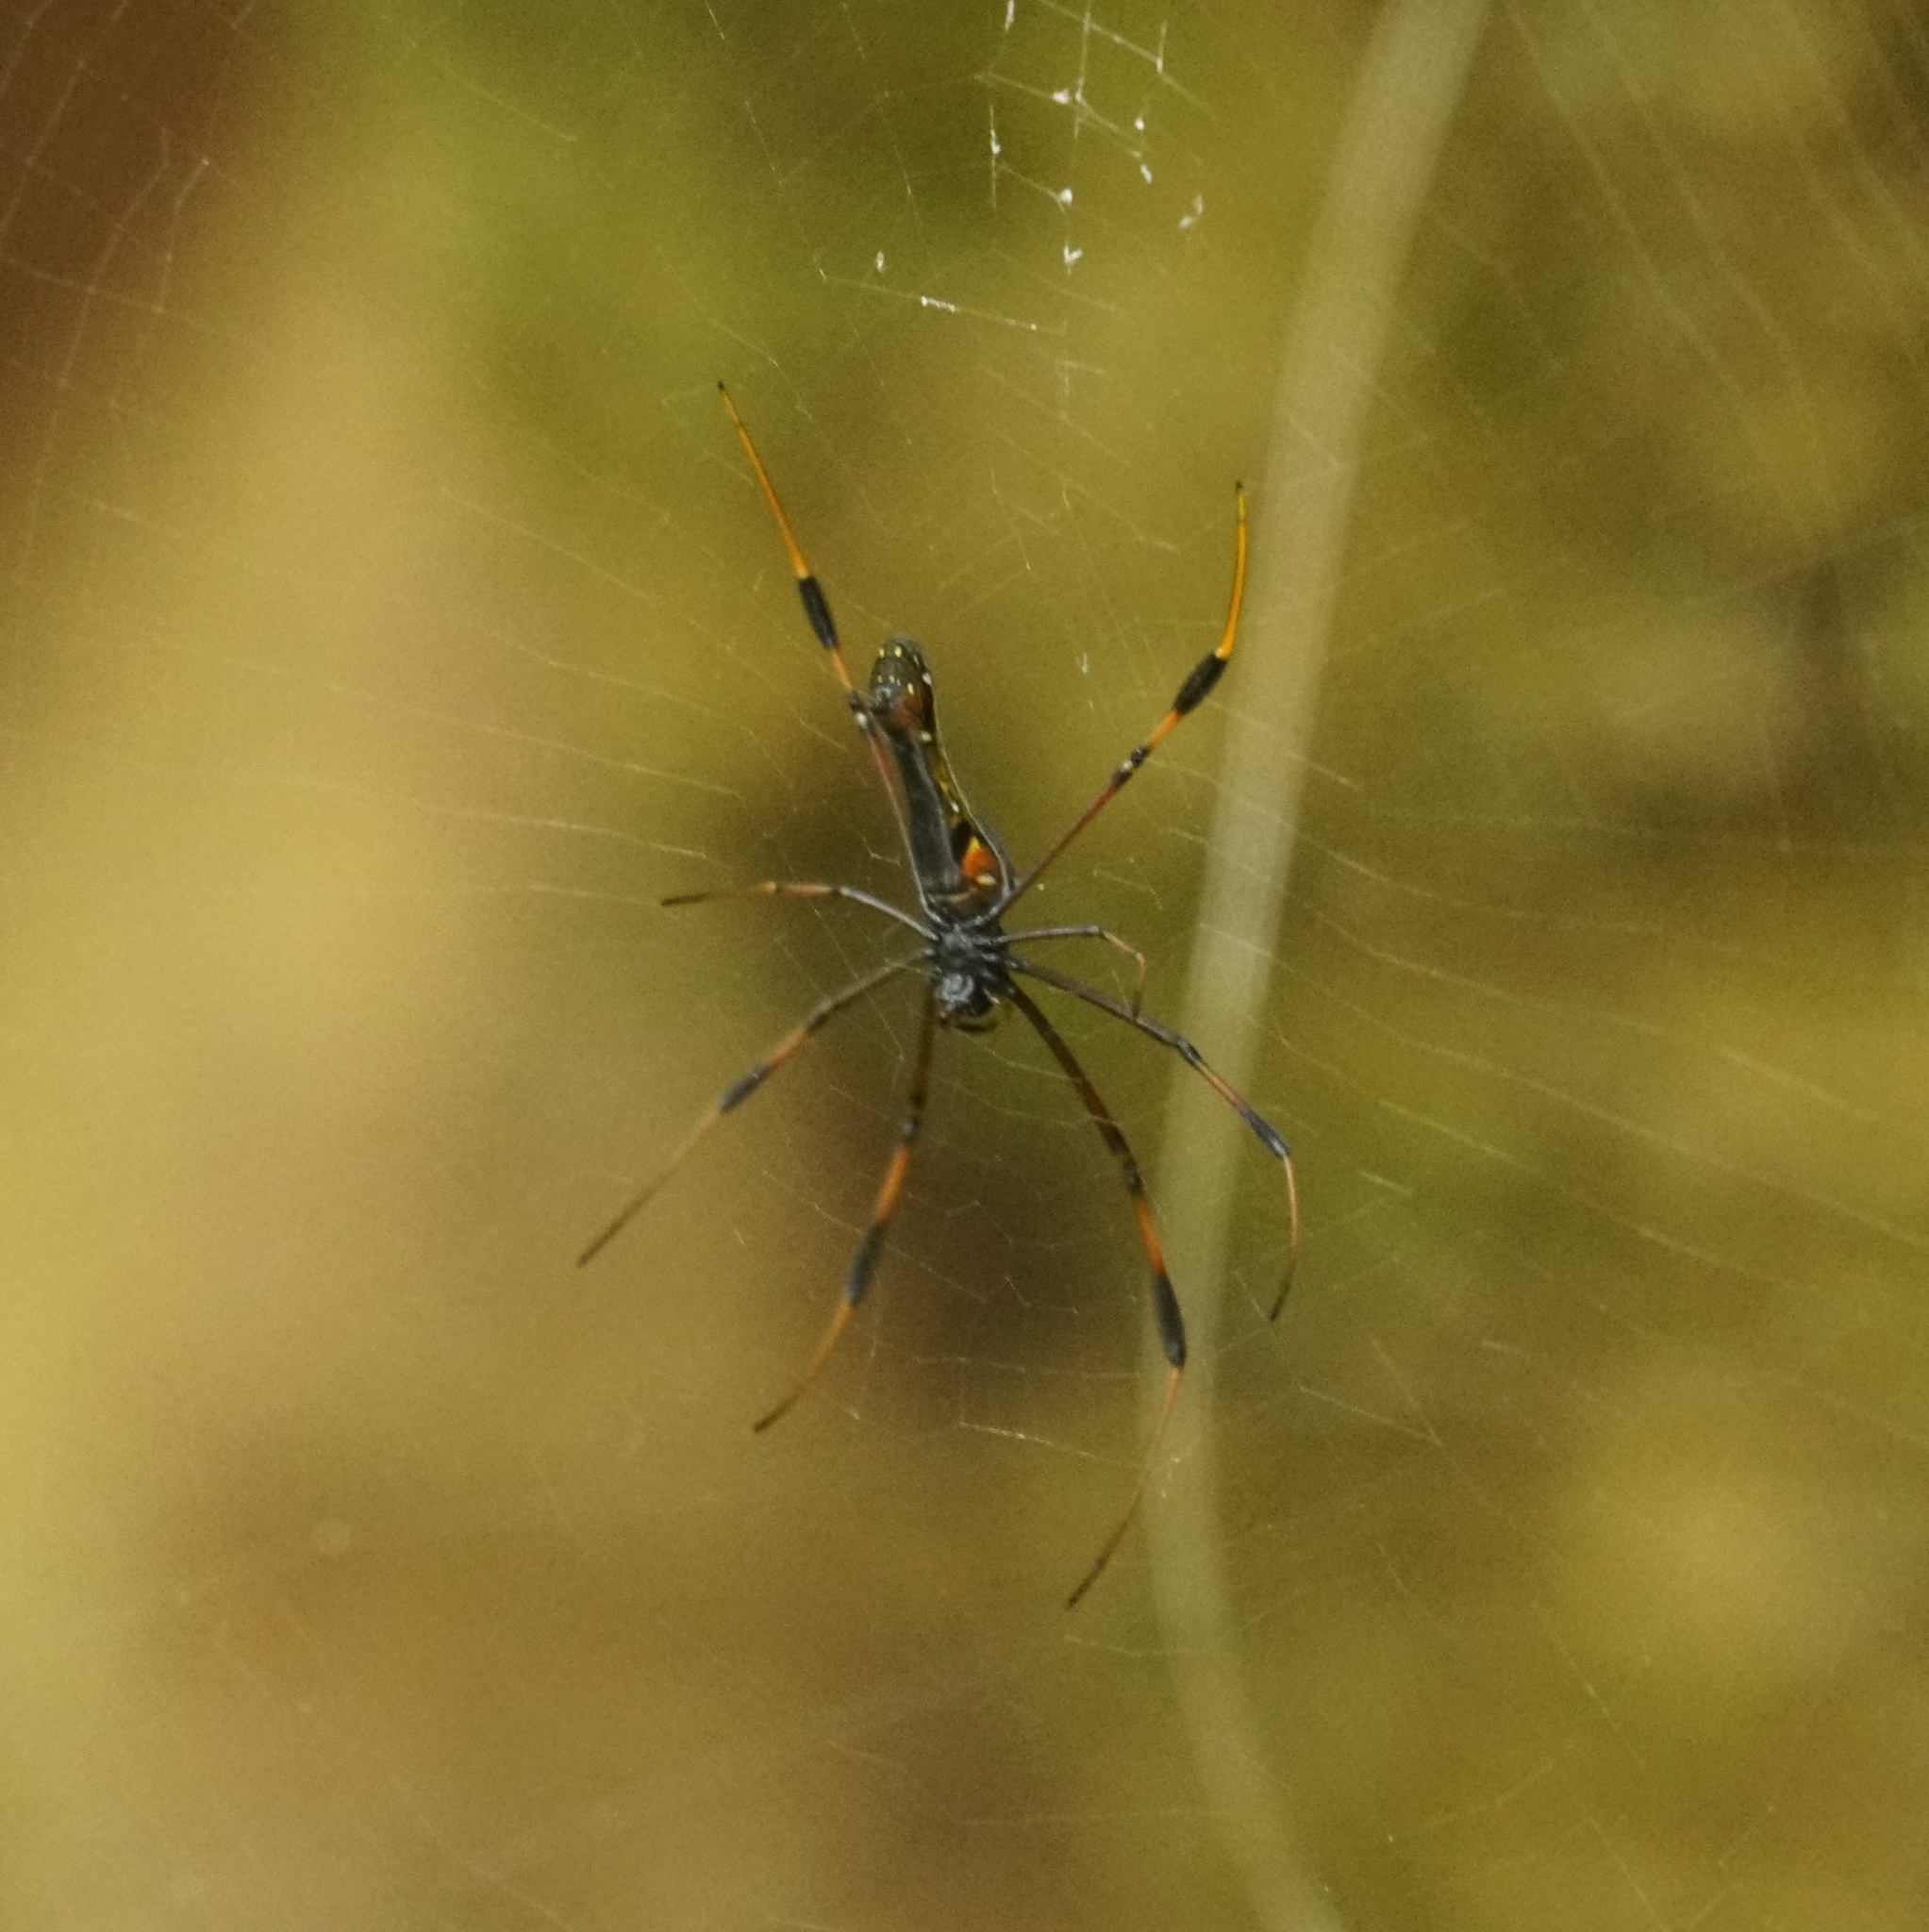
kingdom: Animalia
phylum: Arthropoda
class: Arachnida
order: Araneae
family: Araneidae
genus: Nephila
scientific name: Nephila pilipes
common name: Giant golden orb weaver
